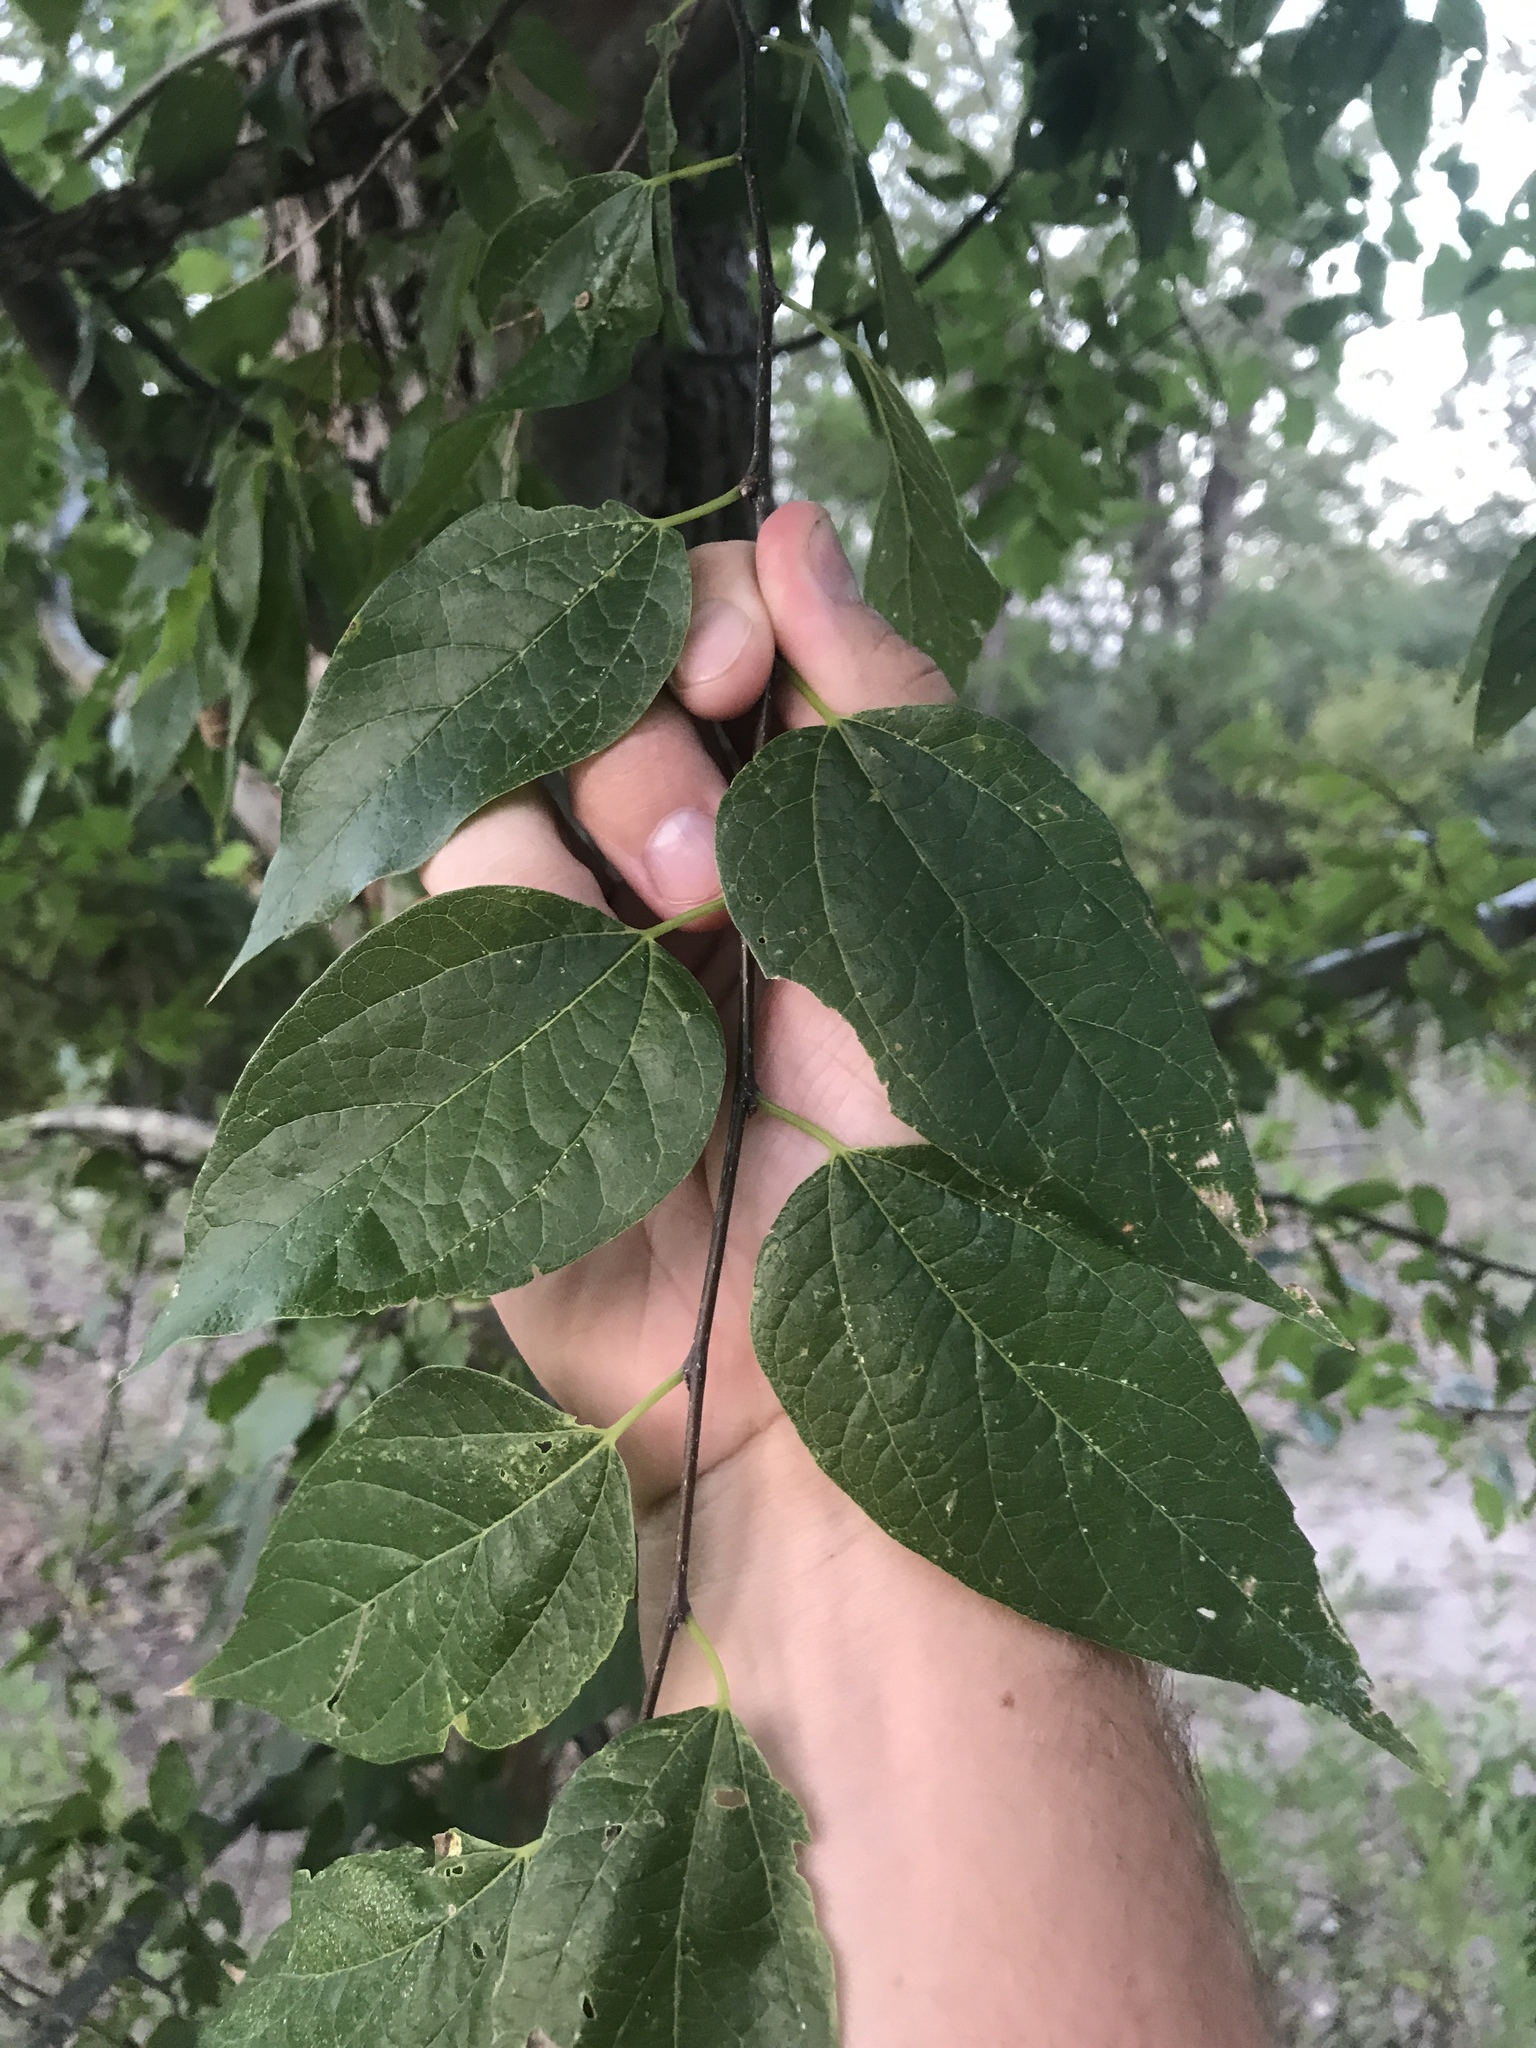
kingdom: Plantae
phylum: Tracheophyta
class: Magnoliopsida
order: Rosales
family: Cannabaceae
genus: Celtis
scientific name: Celtis laevigata
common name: Sugarberry
